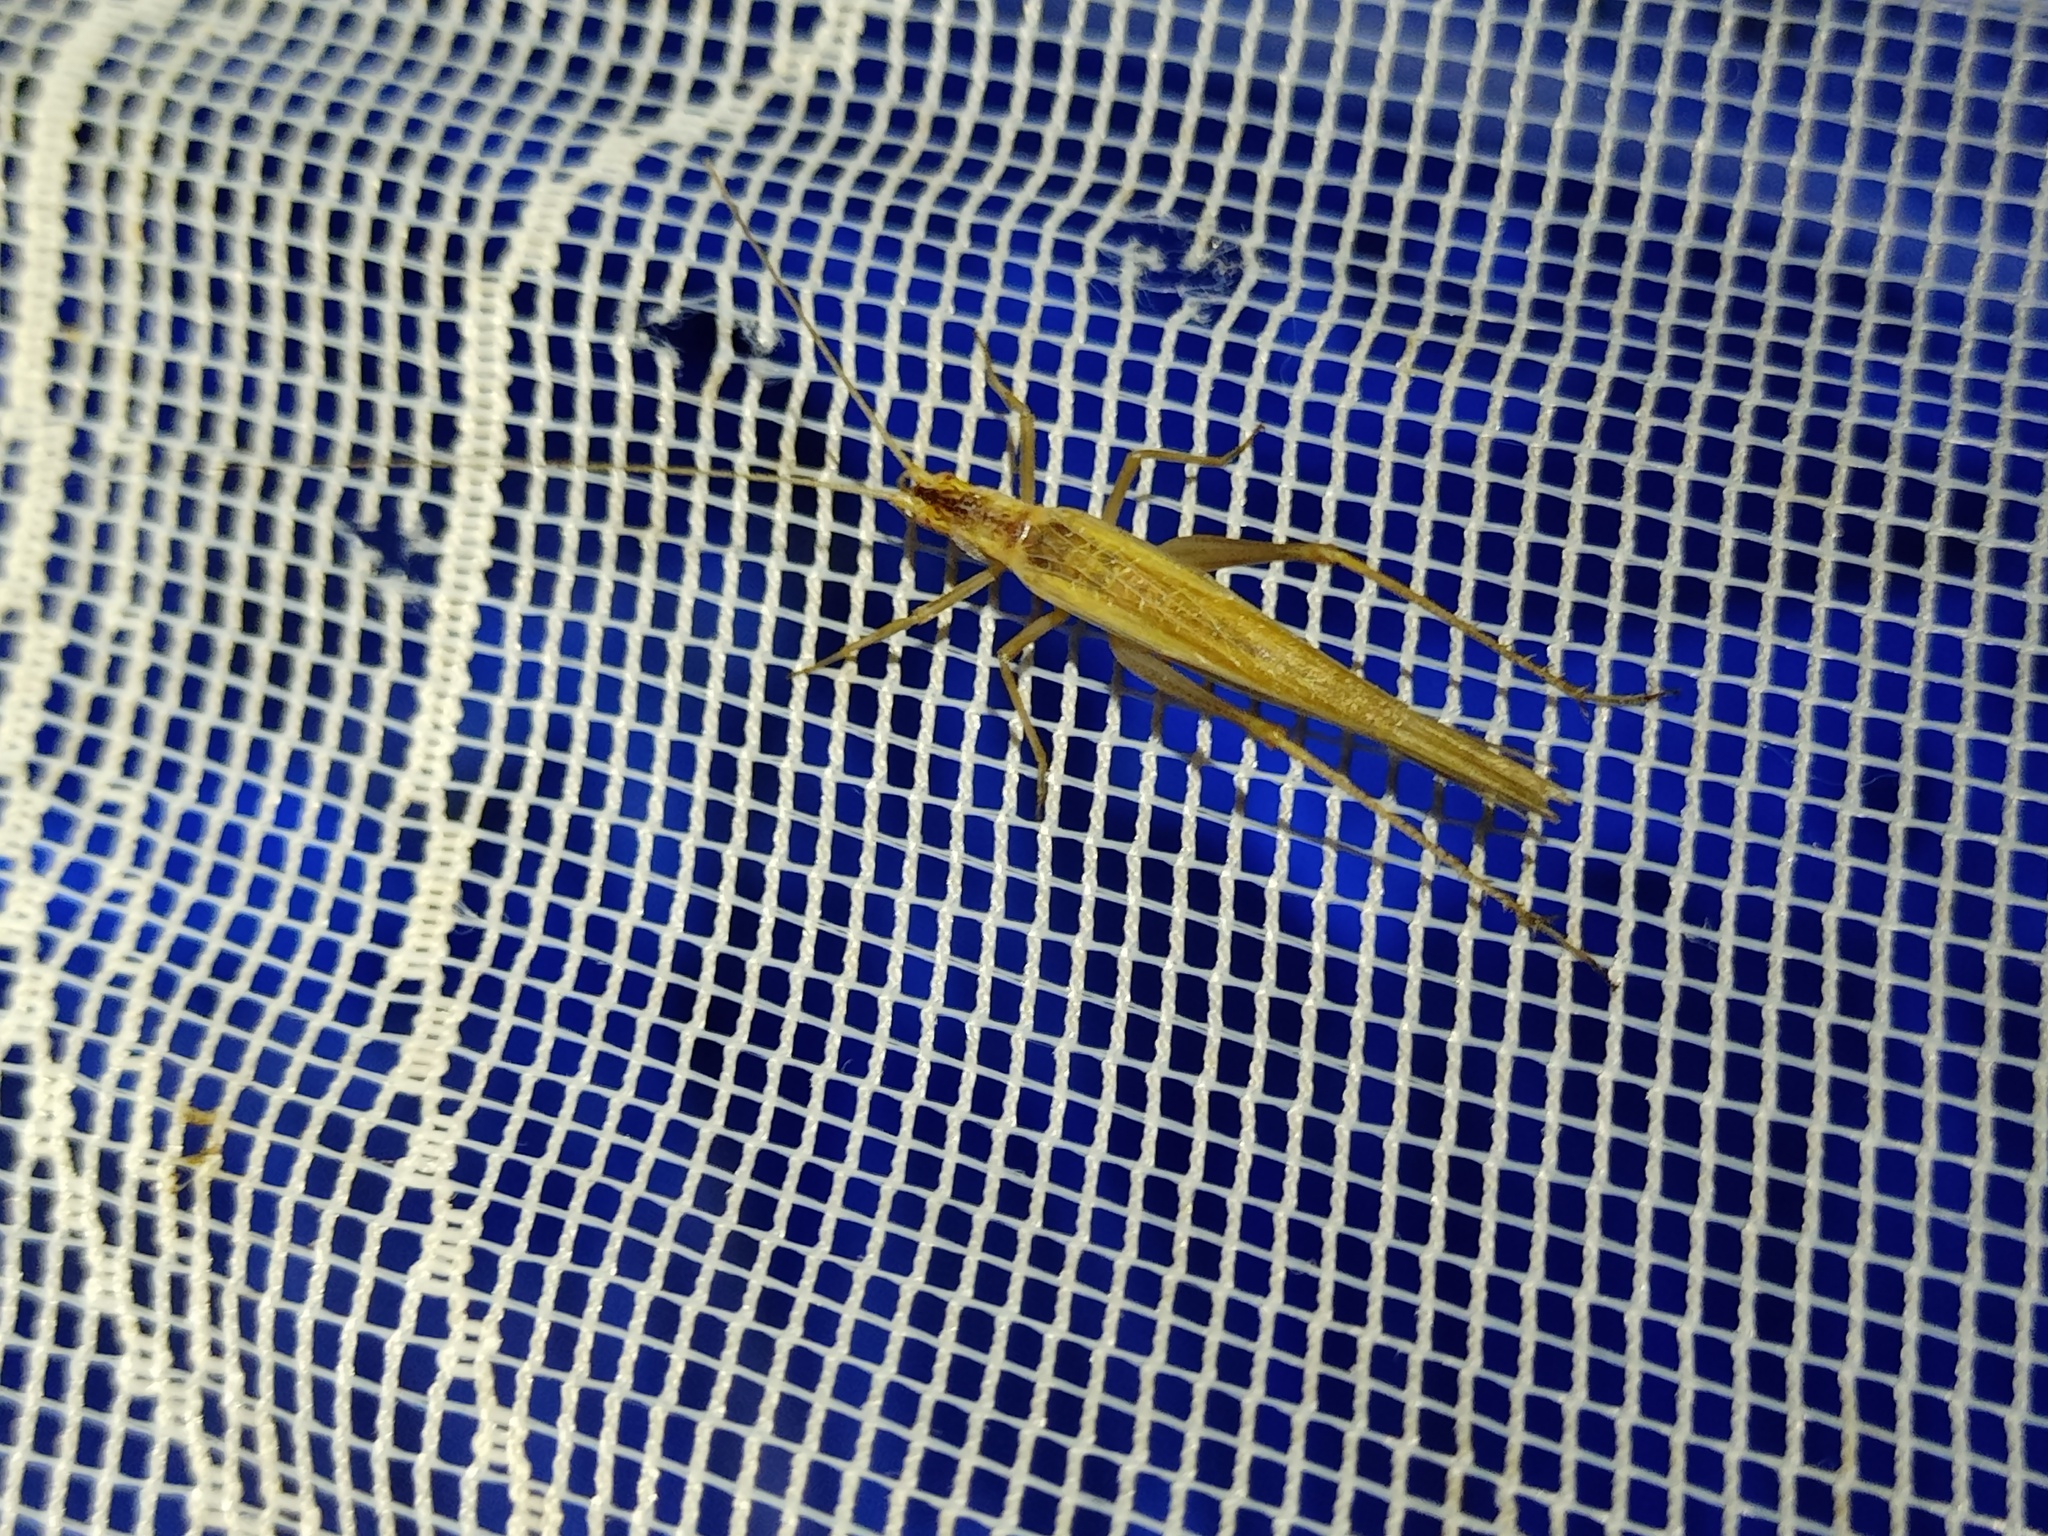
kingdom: Animalia
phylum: Arthropoda
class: Insecta
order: Orthoptera
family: Gryllidae
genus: Oecanthus
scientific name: Oecanthus pellucens
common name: Tree-cricket
